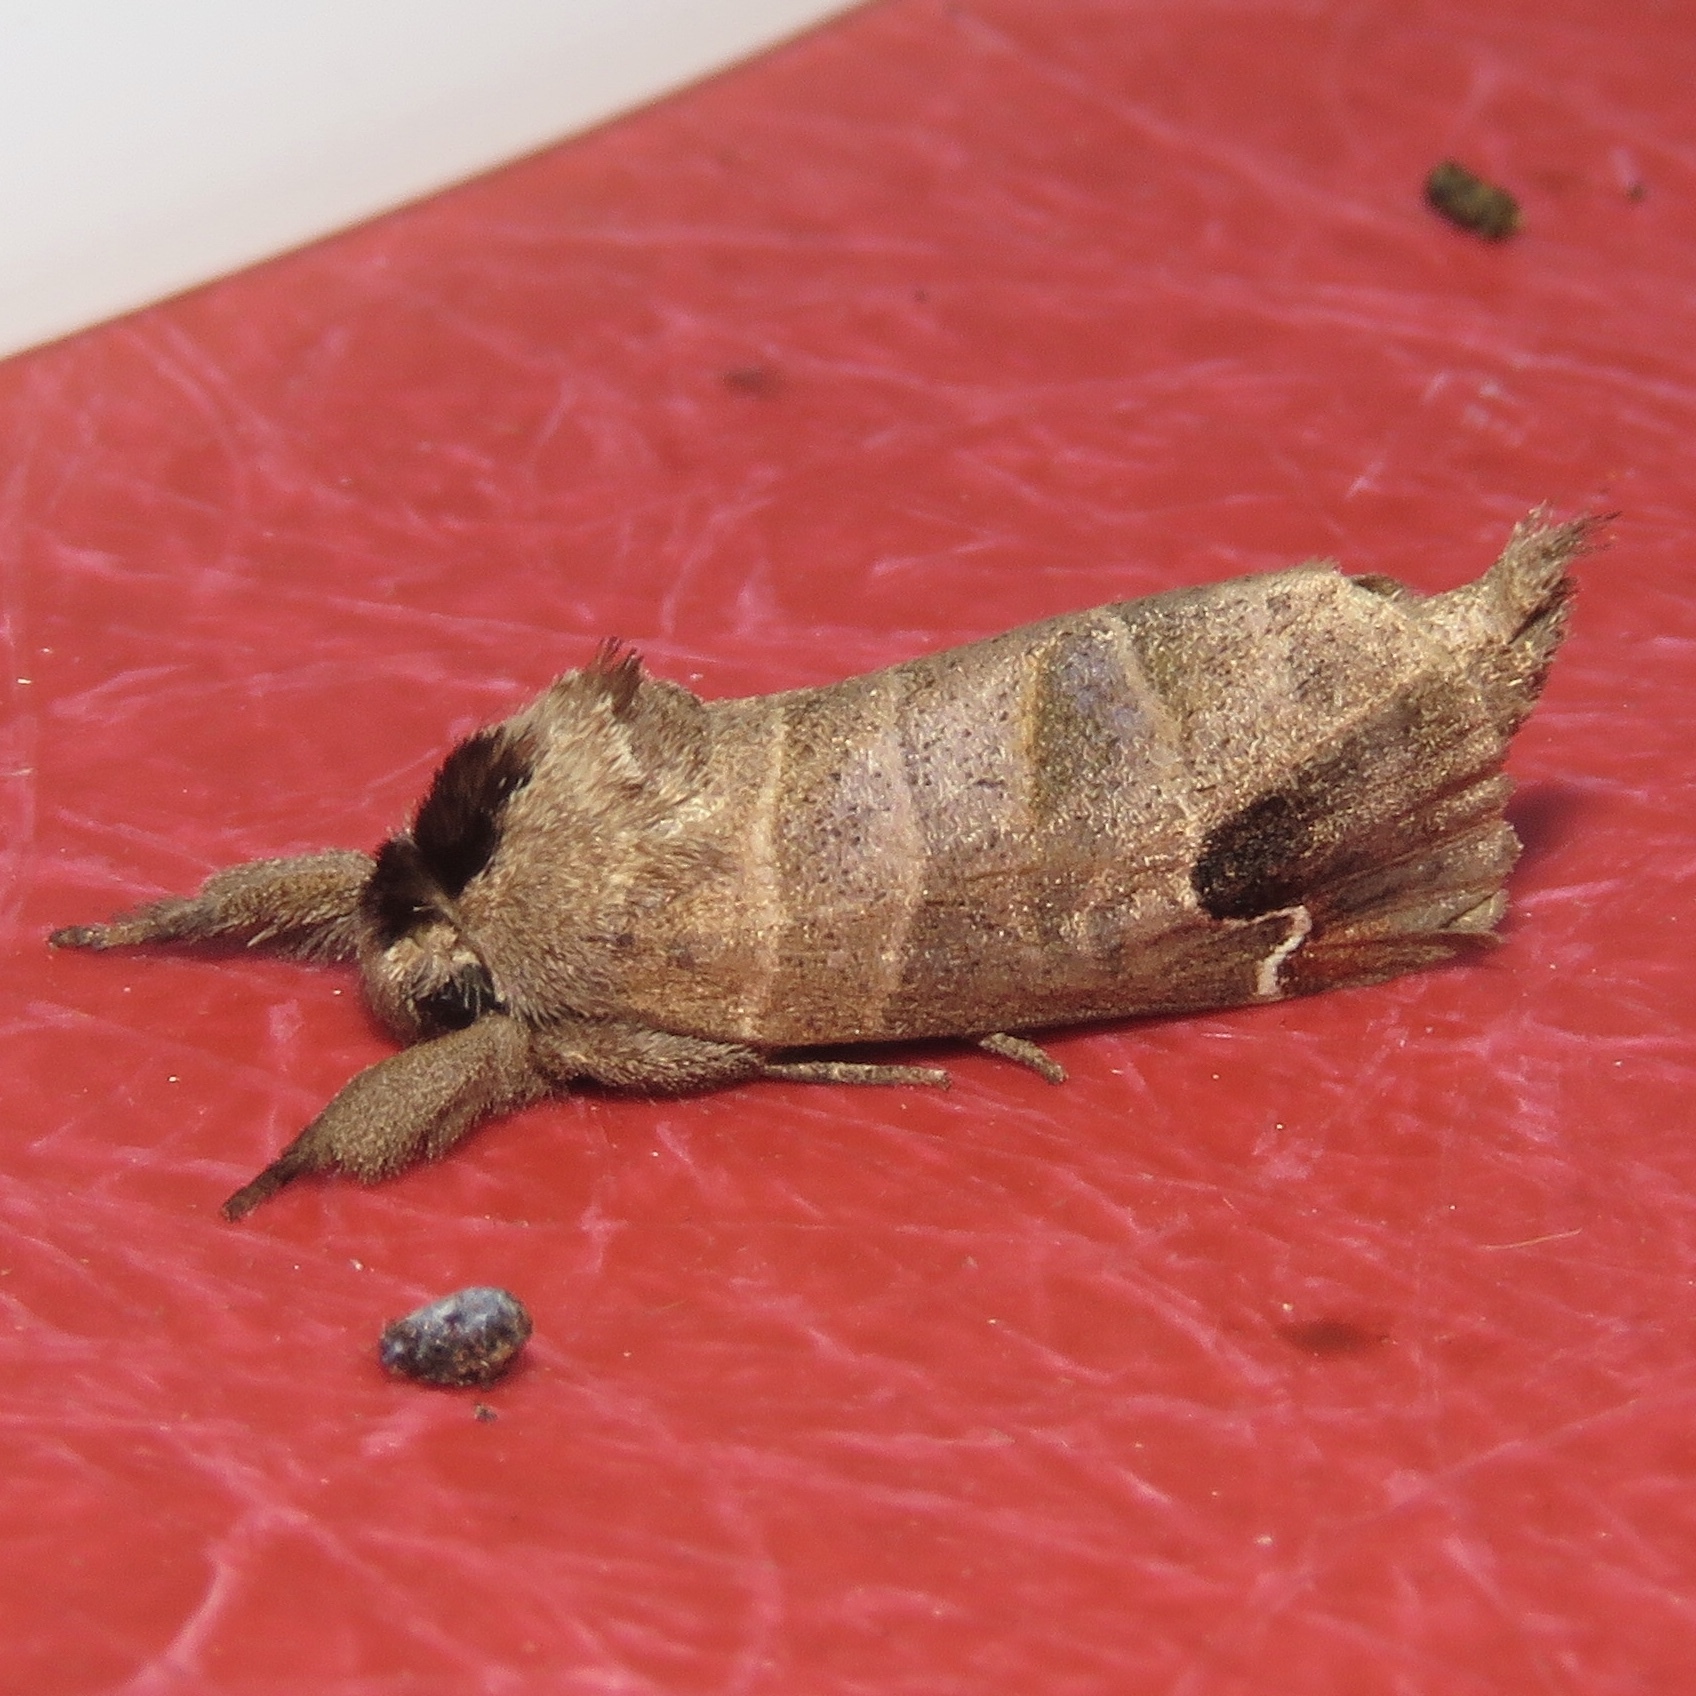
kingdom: Animalia
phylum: Arthropoda
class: Insecta
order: Lepidoptera
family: Notodontidae
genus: Clostera
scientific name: Clostera albosigma
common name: Sigmoid prominent
